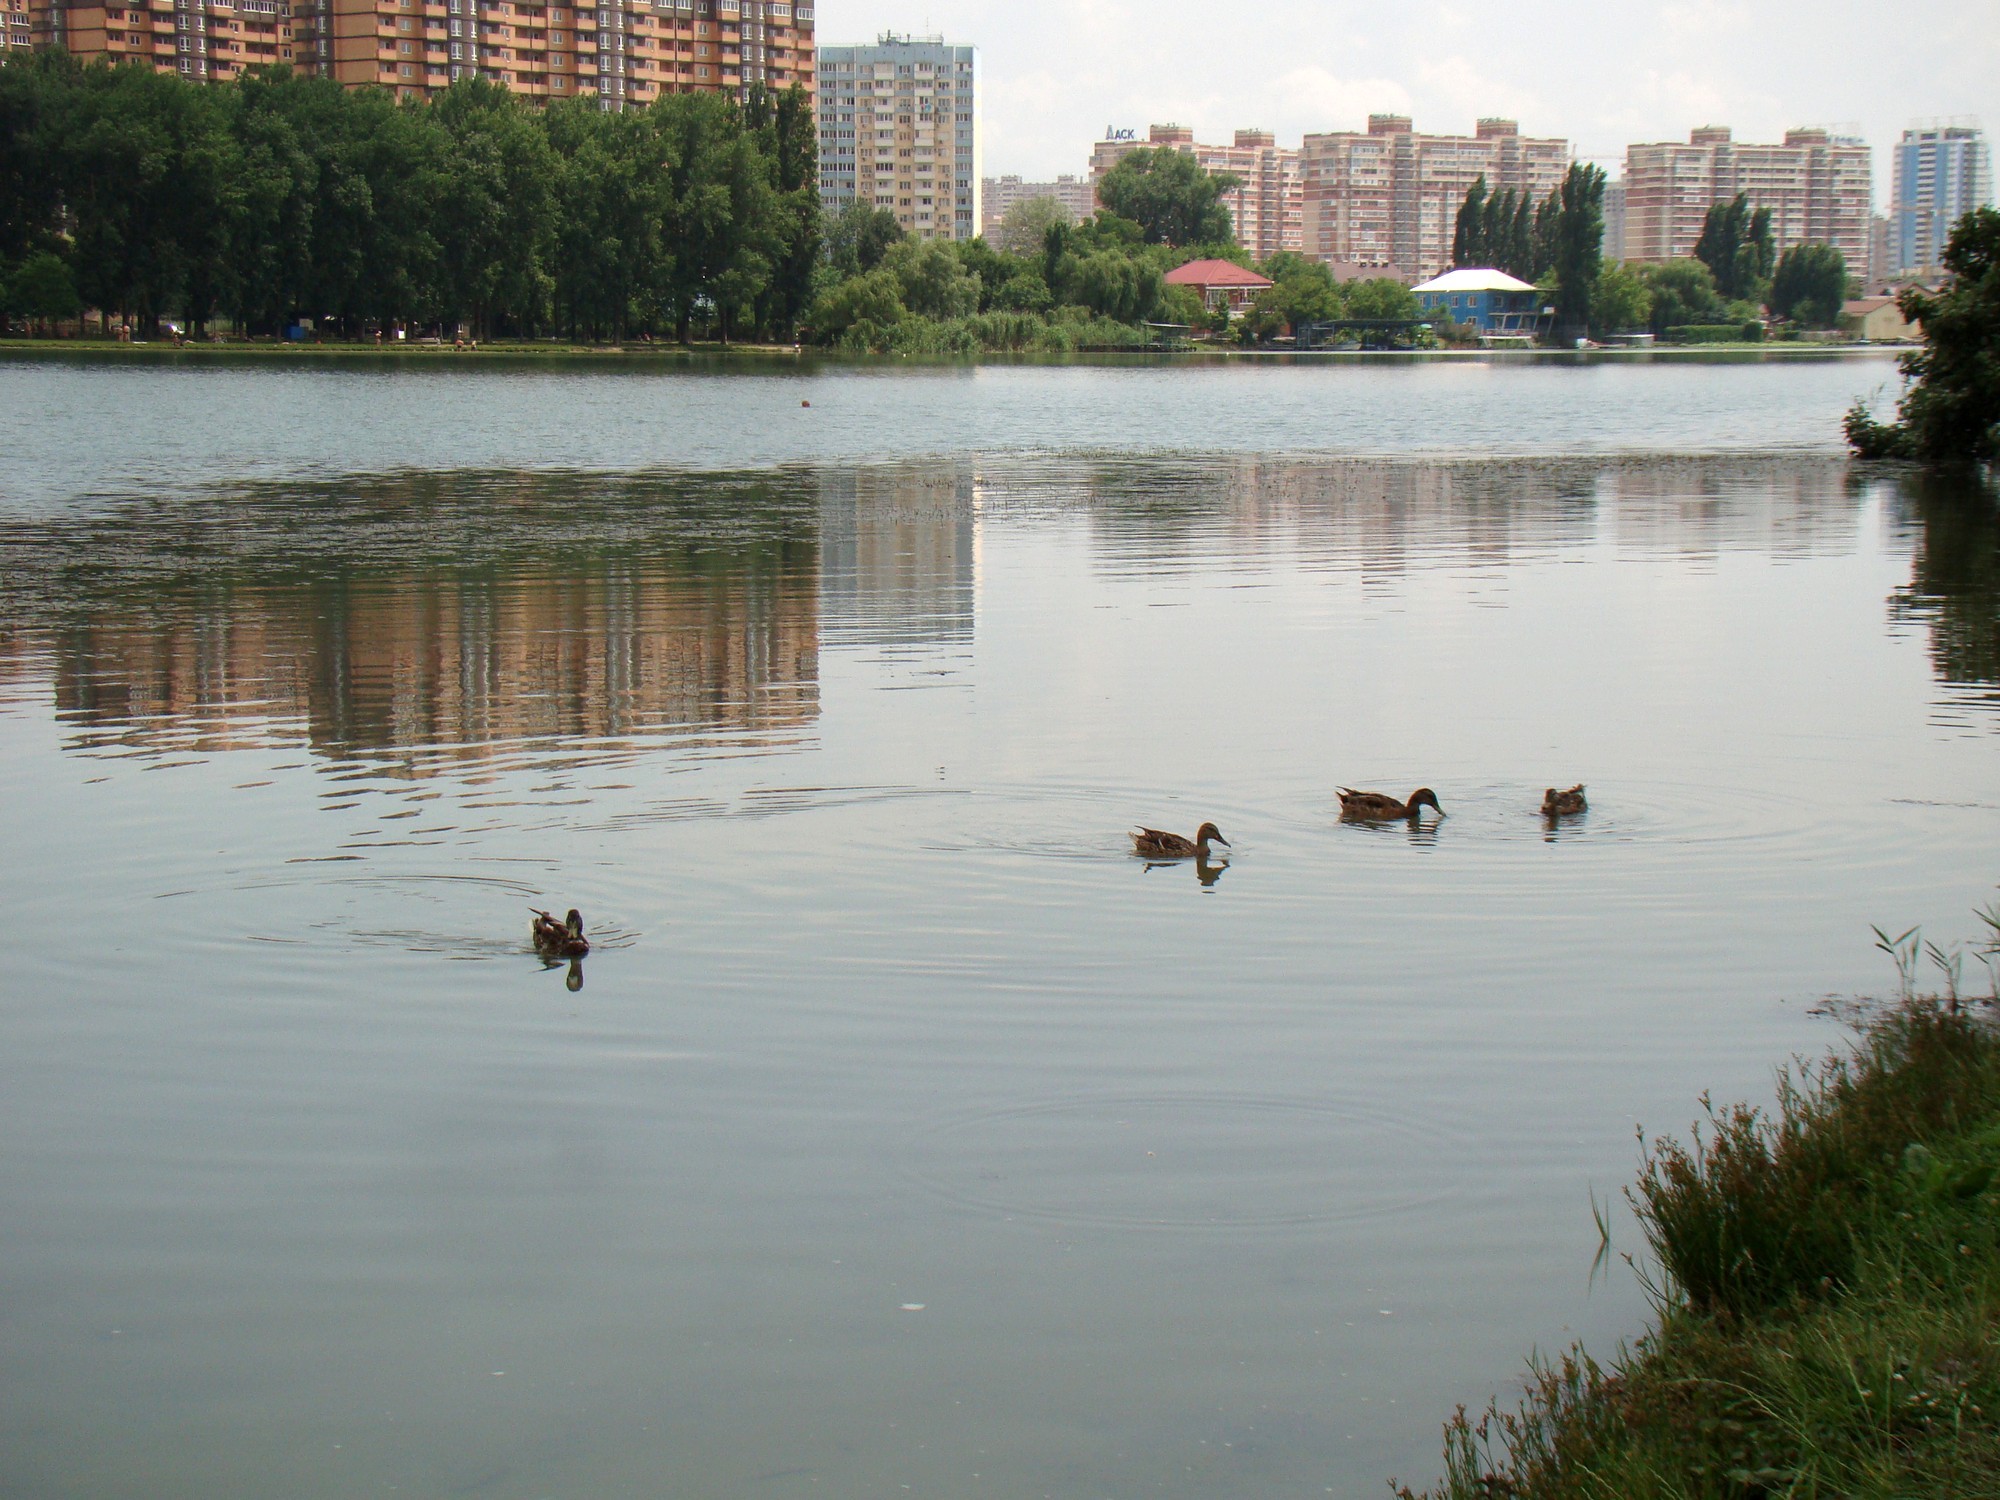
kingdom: Animalia
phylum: Chordata
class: Aves
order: Anseriformes
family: Anatidae
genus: Anas
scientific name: Anas platyrhynchos
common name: Mallard
